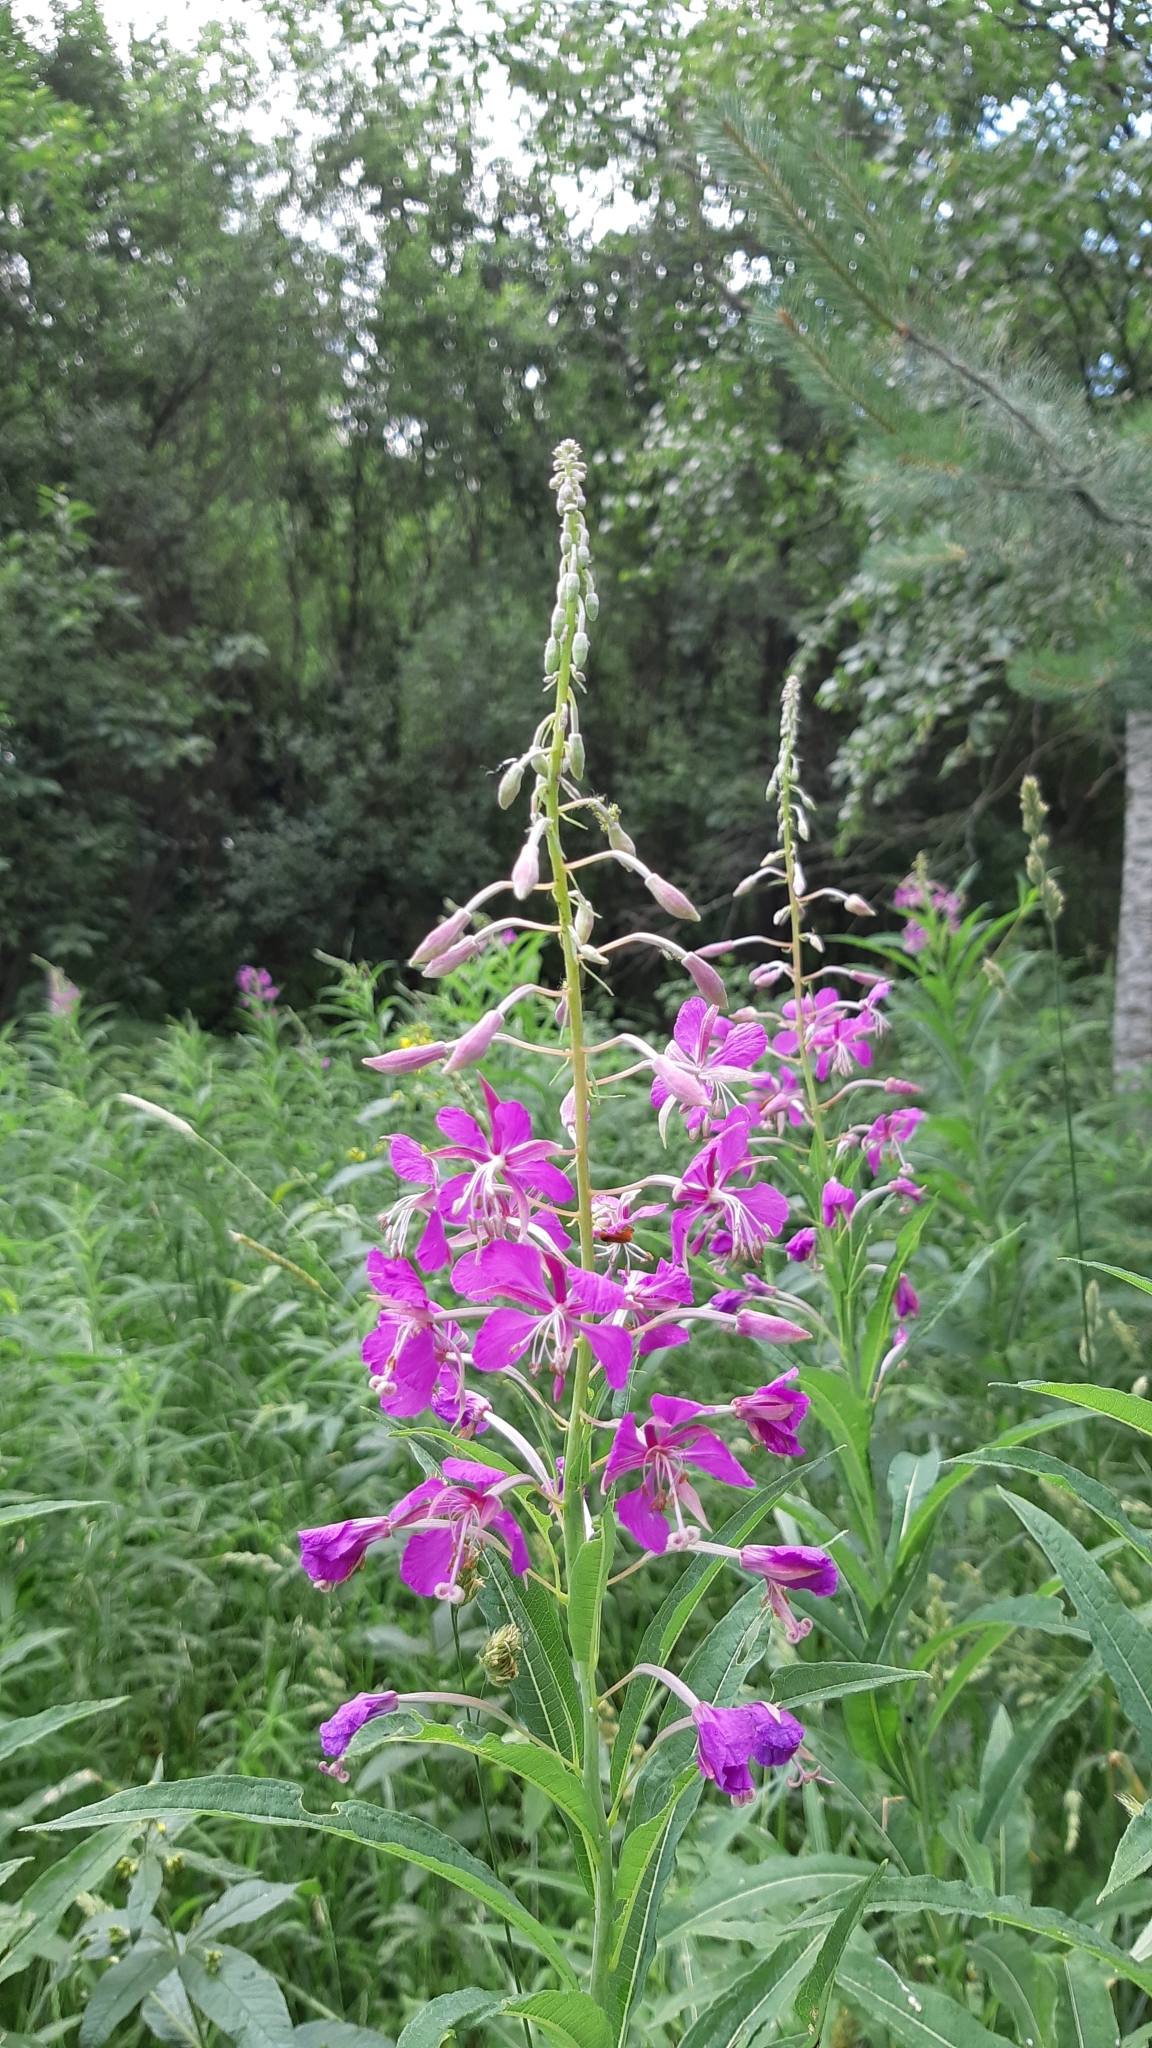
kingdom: Plantae
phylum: Tracheophyta
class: Magnoliopsida
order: Myrtales
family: Onagraceae
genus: Chamaenerion
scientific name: Chamaenerion angustifolium
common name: Fireweed
